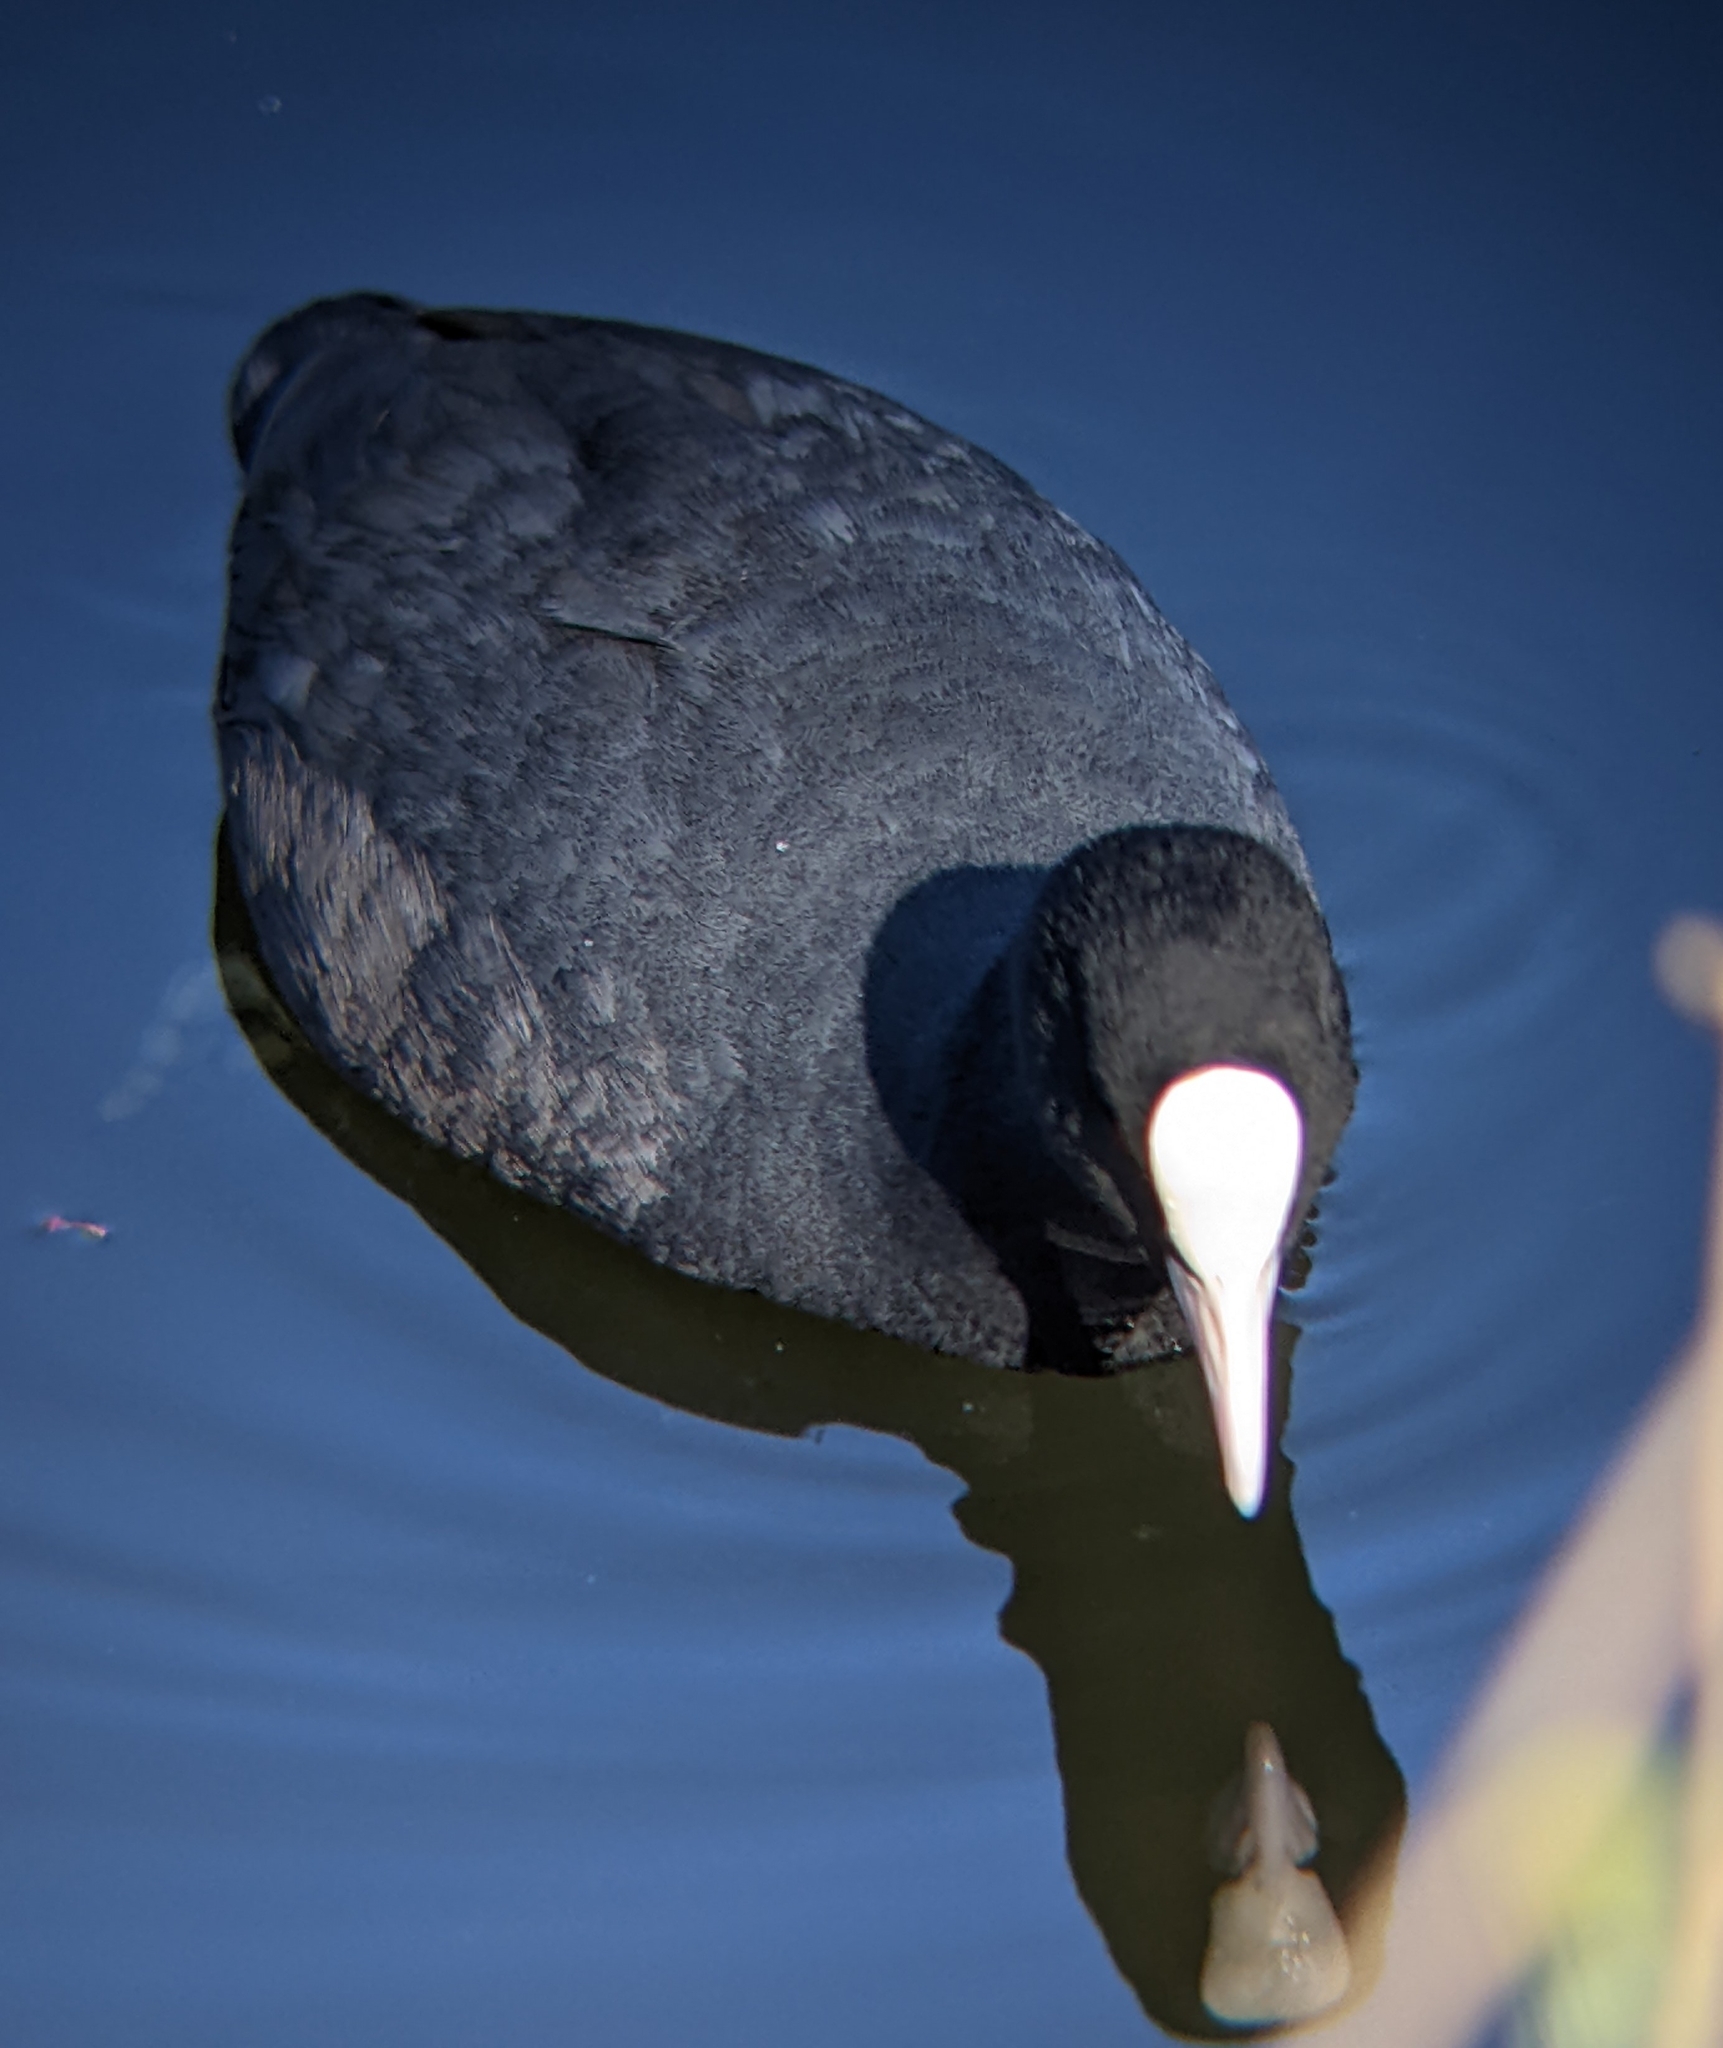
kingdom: Animalia
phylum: Chordata
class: Aves
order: Gruiformes
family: Rallidae
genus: Fulica
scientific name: Fulica atra
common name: Eurasian coot
